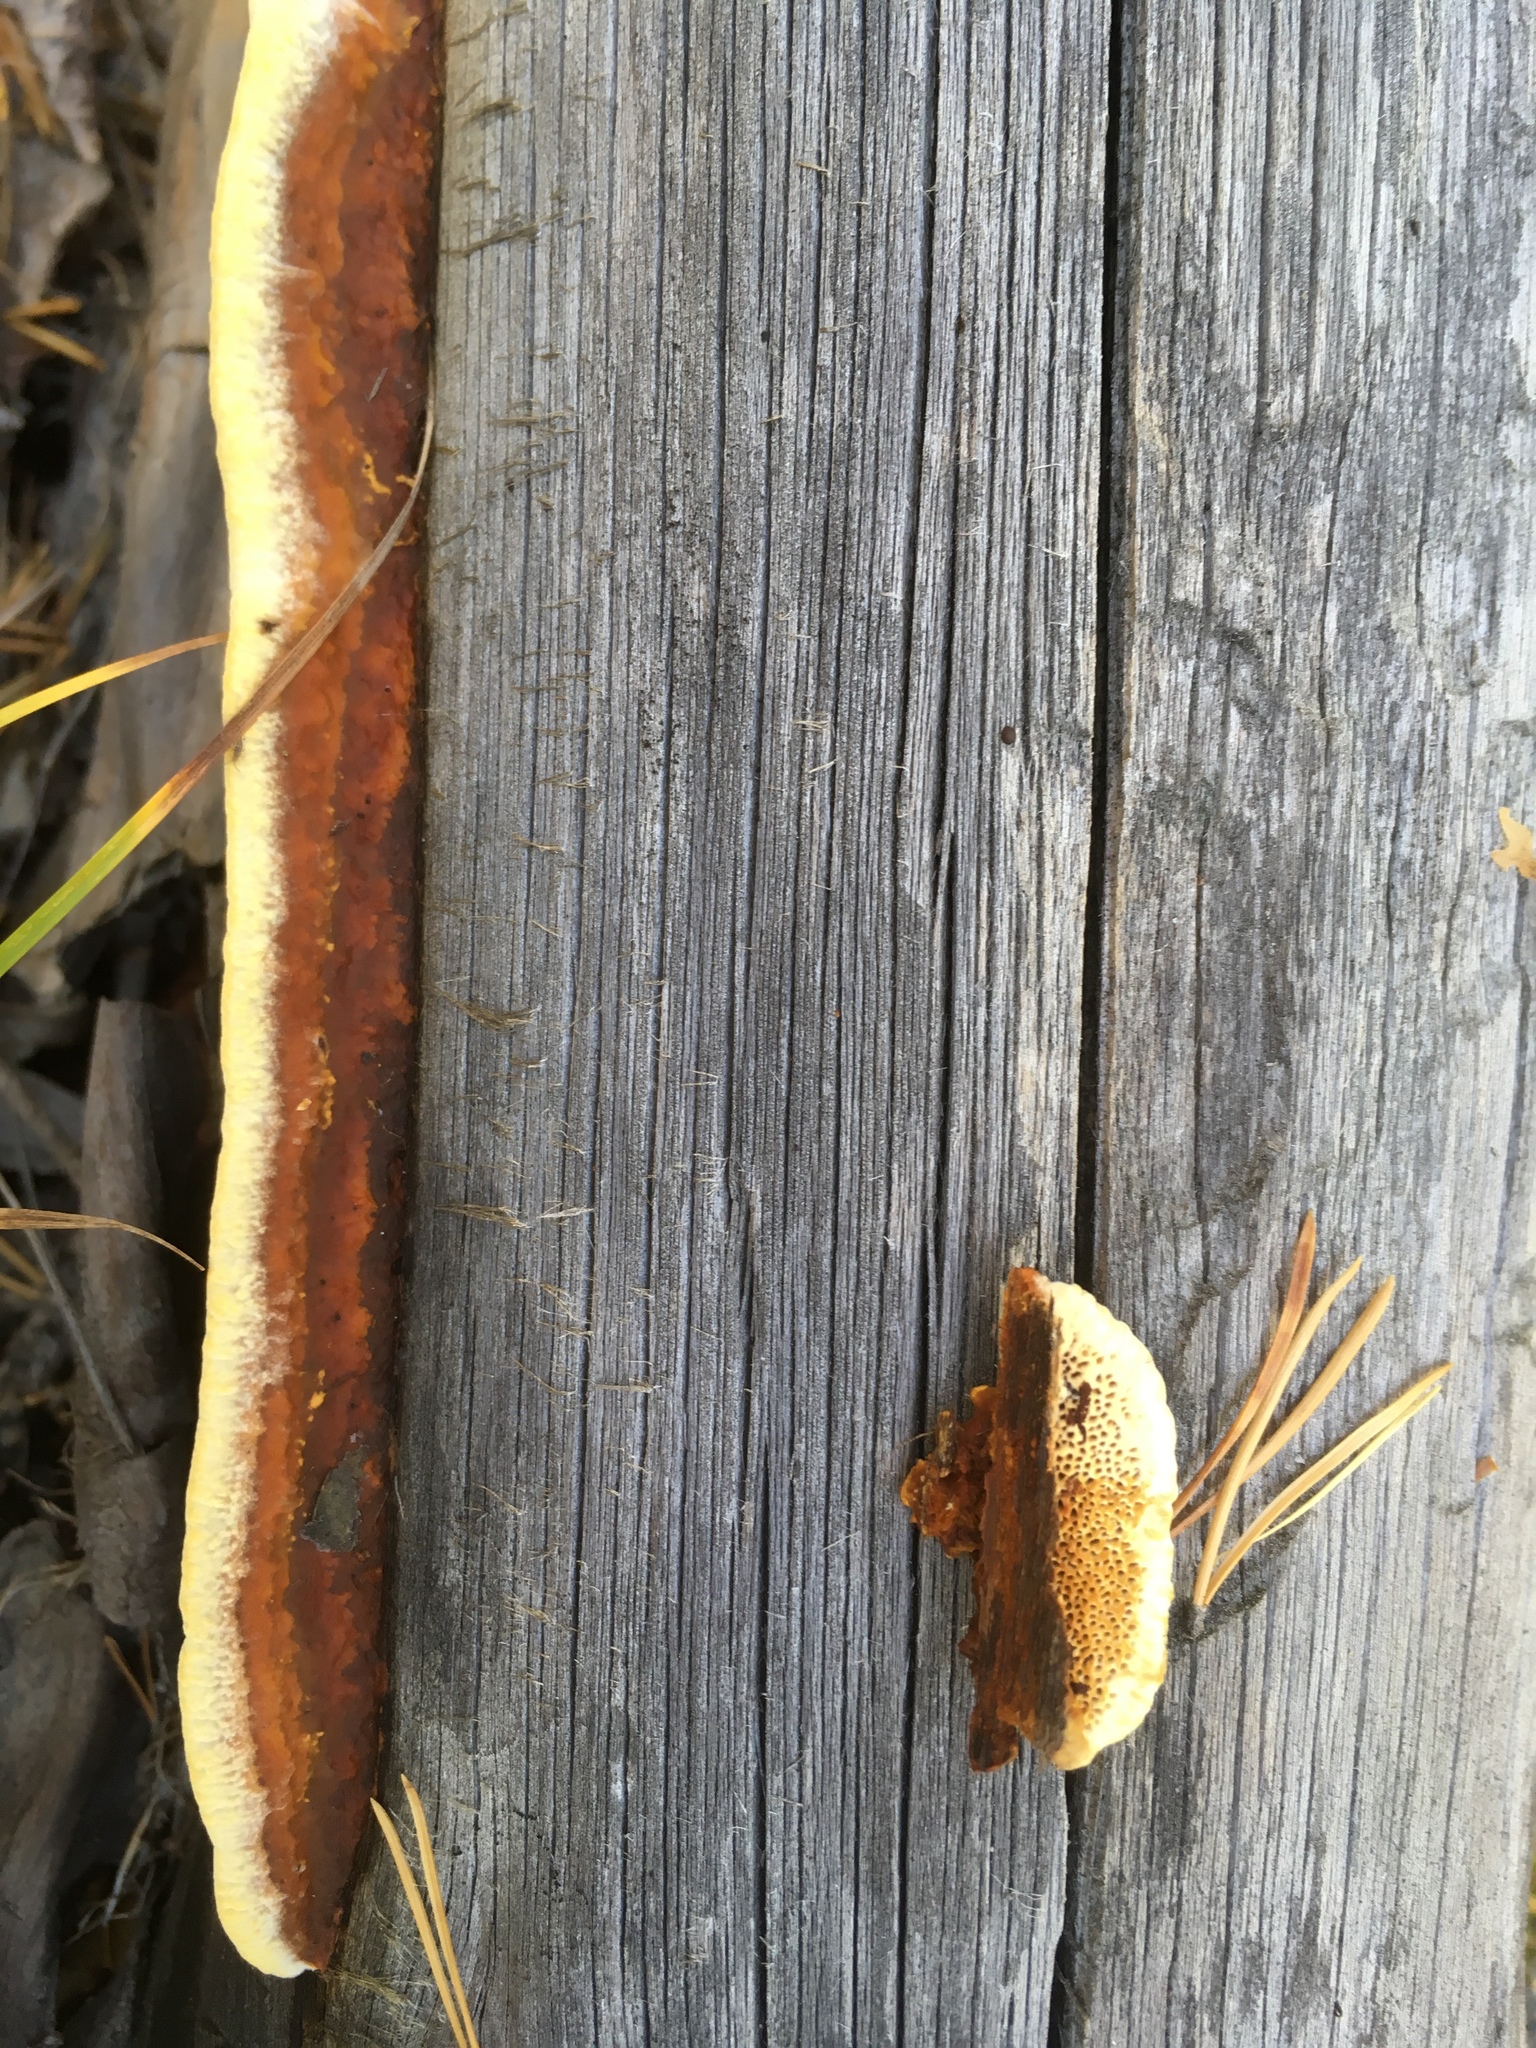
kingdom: Fungi
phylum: Basidiomycota
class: Agaricomycetes
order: Gloeophyllales
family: Gloeophyllaceae
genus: Gloeophyllum
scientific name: Gloeophyllum protractum
